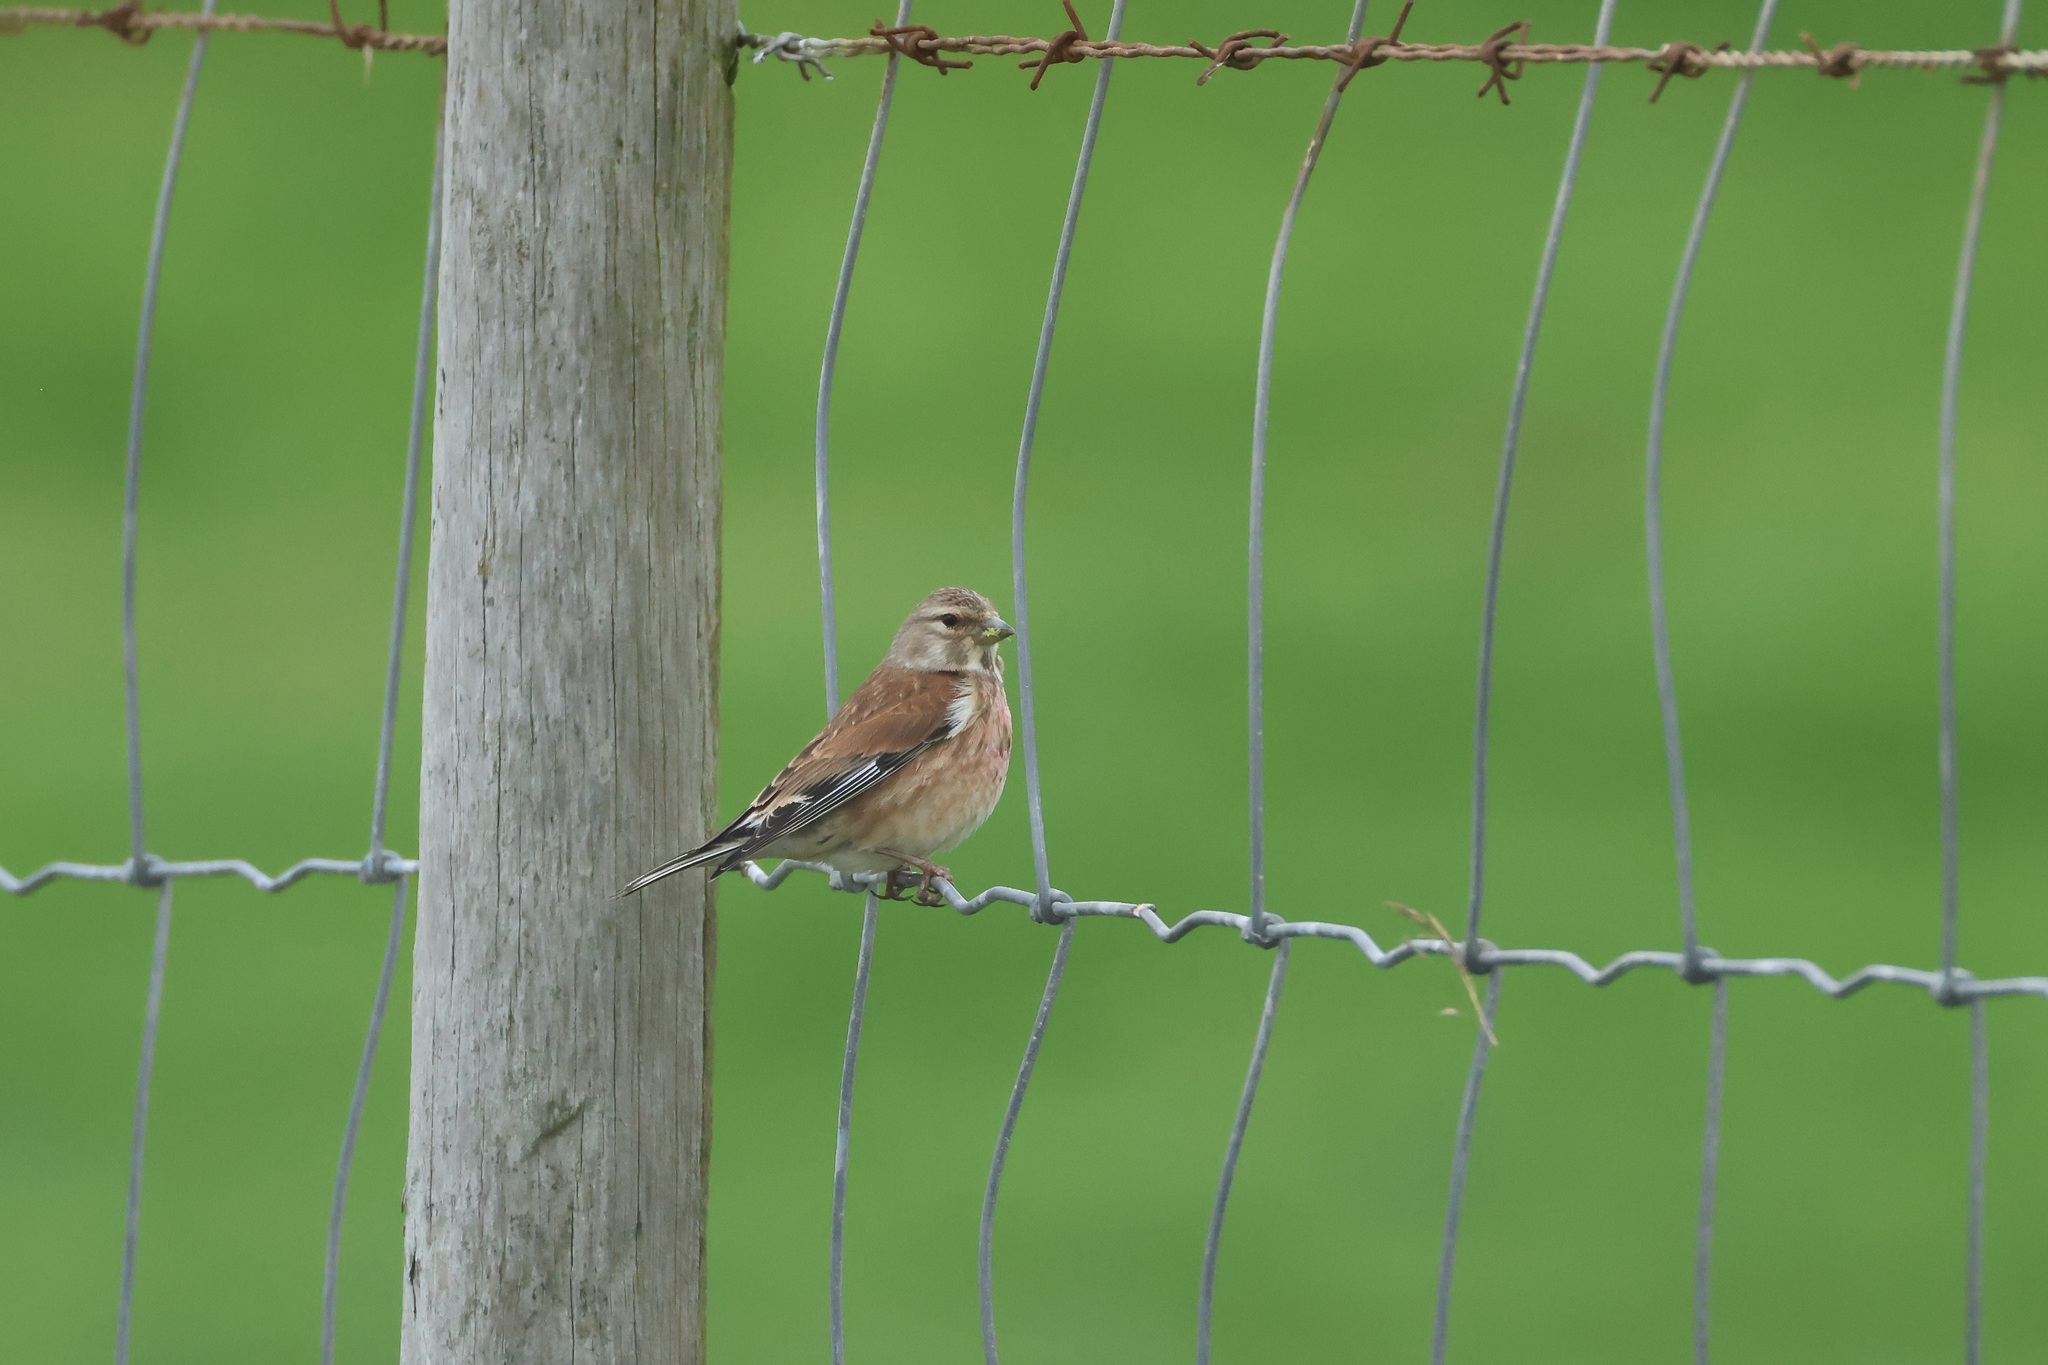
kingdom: Animalia
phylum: Chordata
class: Aves
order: Passeriformes
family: Fringillidae
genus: Linaria
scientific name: Linaria cannabina
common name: Common linnet
